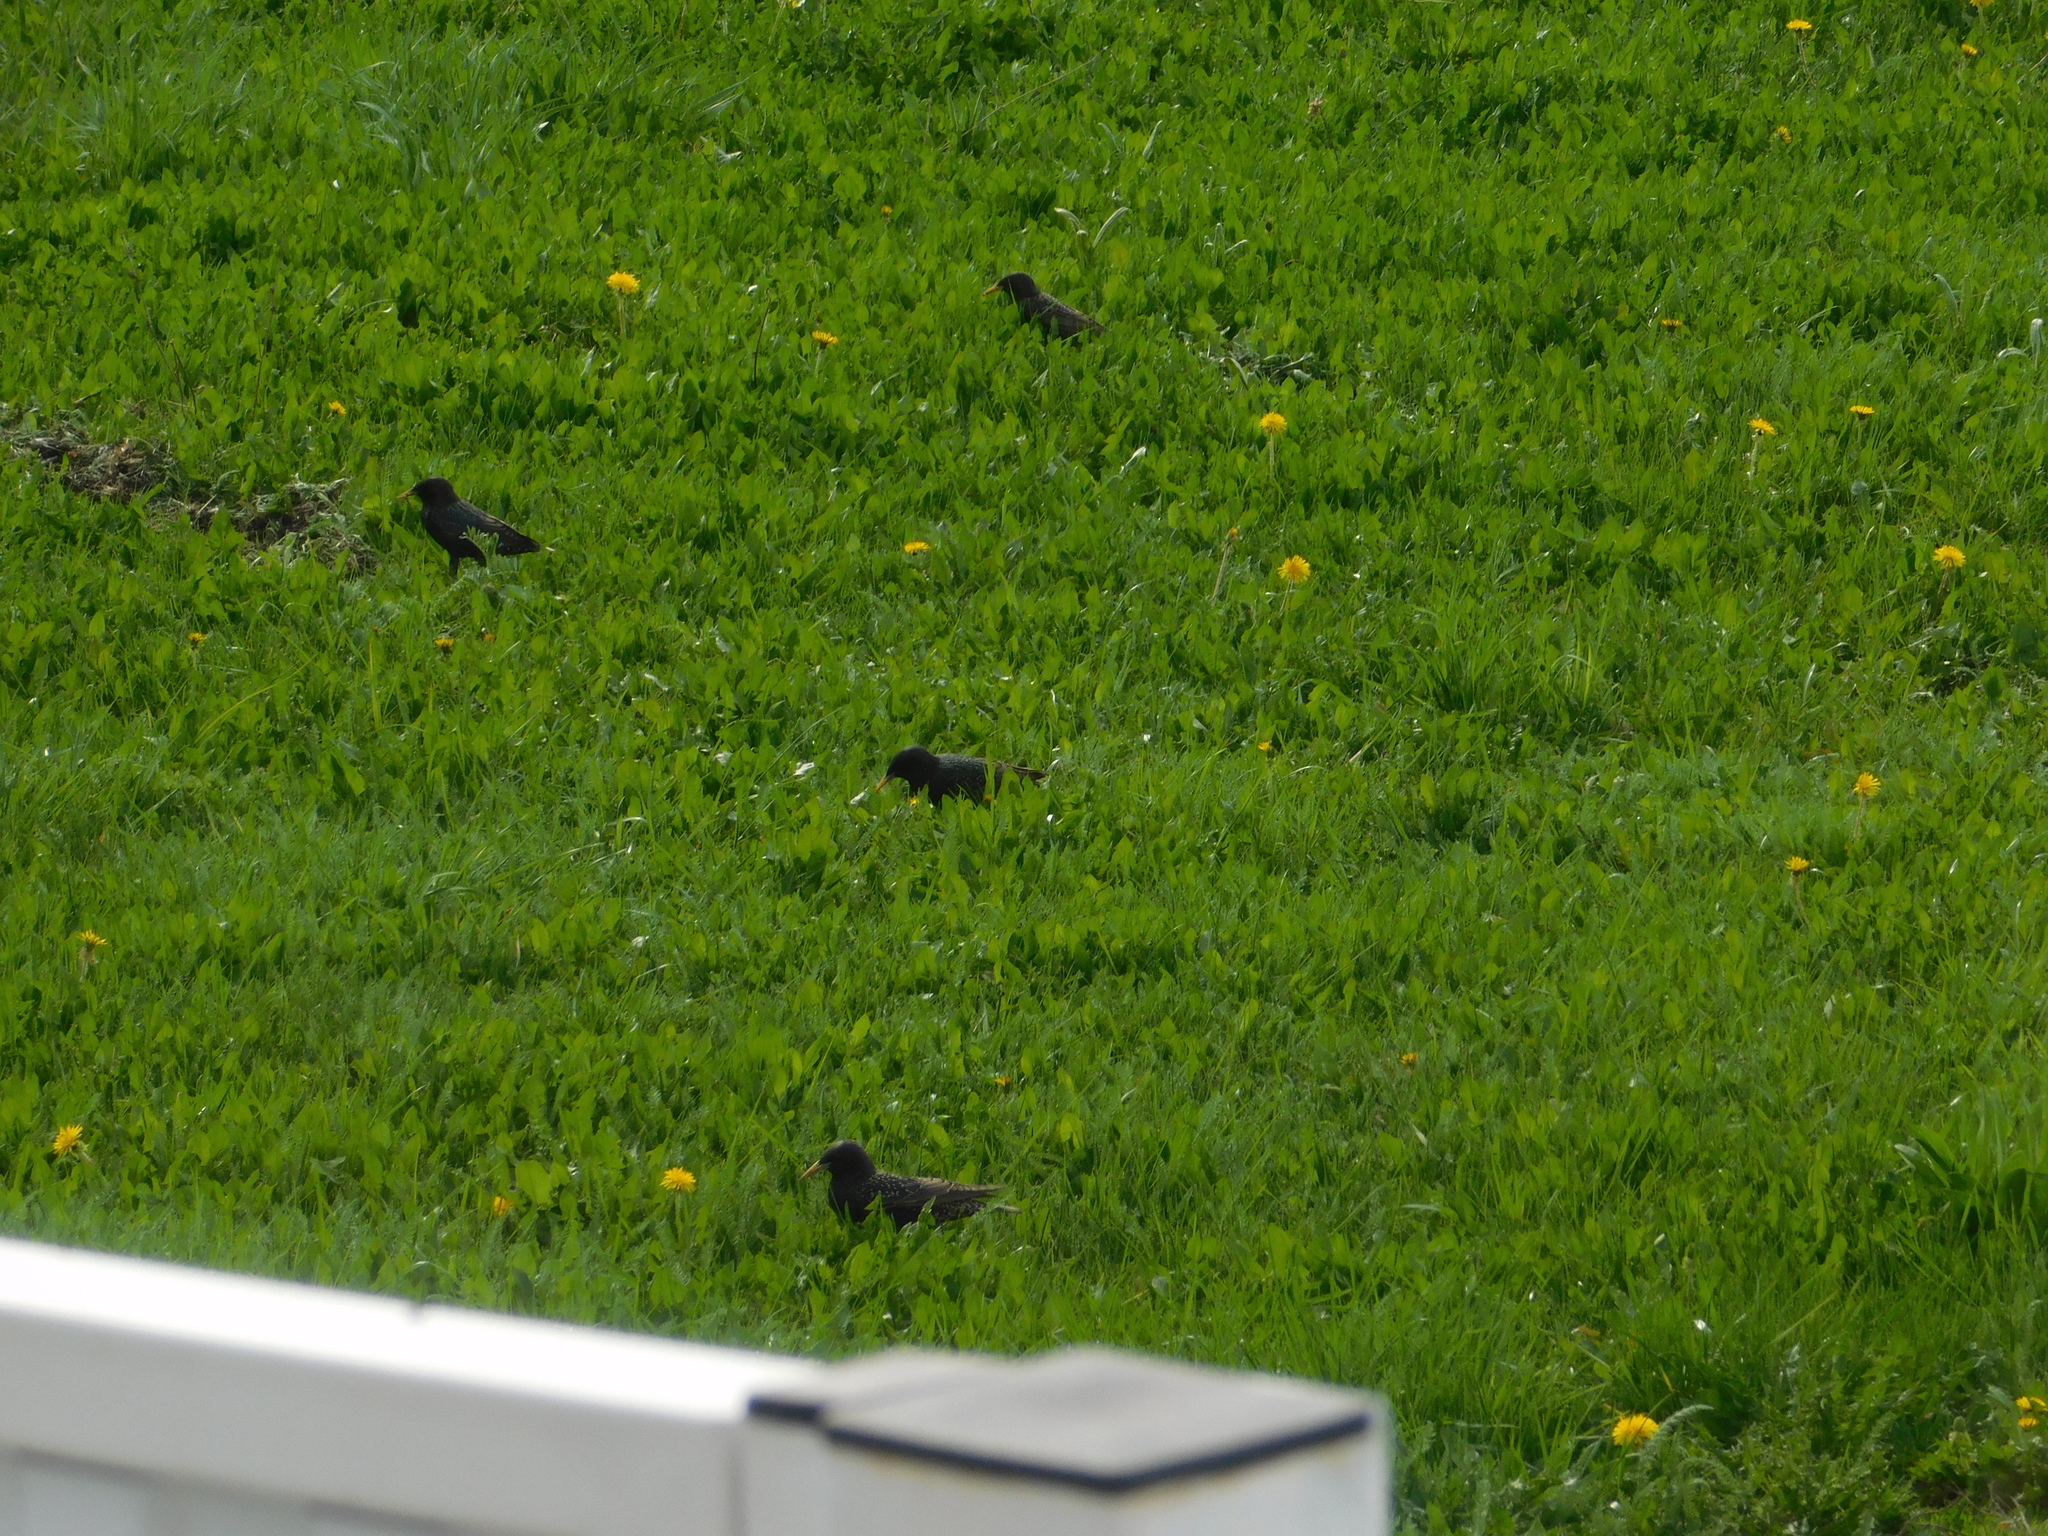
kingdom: Animalia
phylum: Chordata
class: Aves
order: Passeriformes
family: Sturnidae
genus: Sturnus
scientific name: Sturnus vulgaris
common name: Common starling
